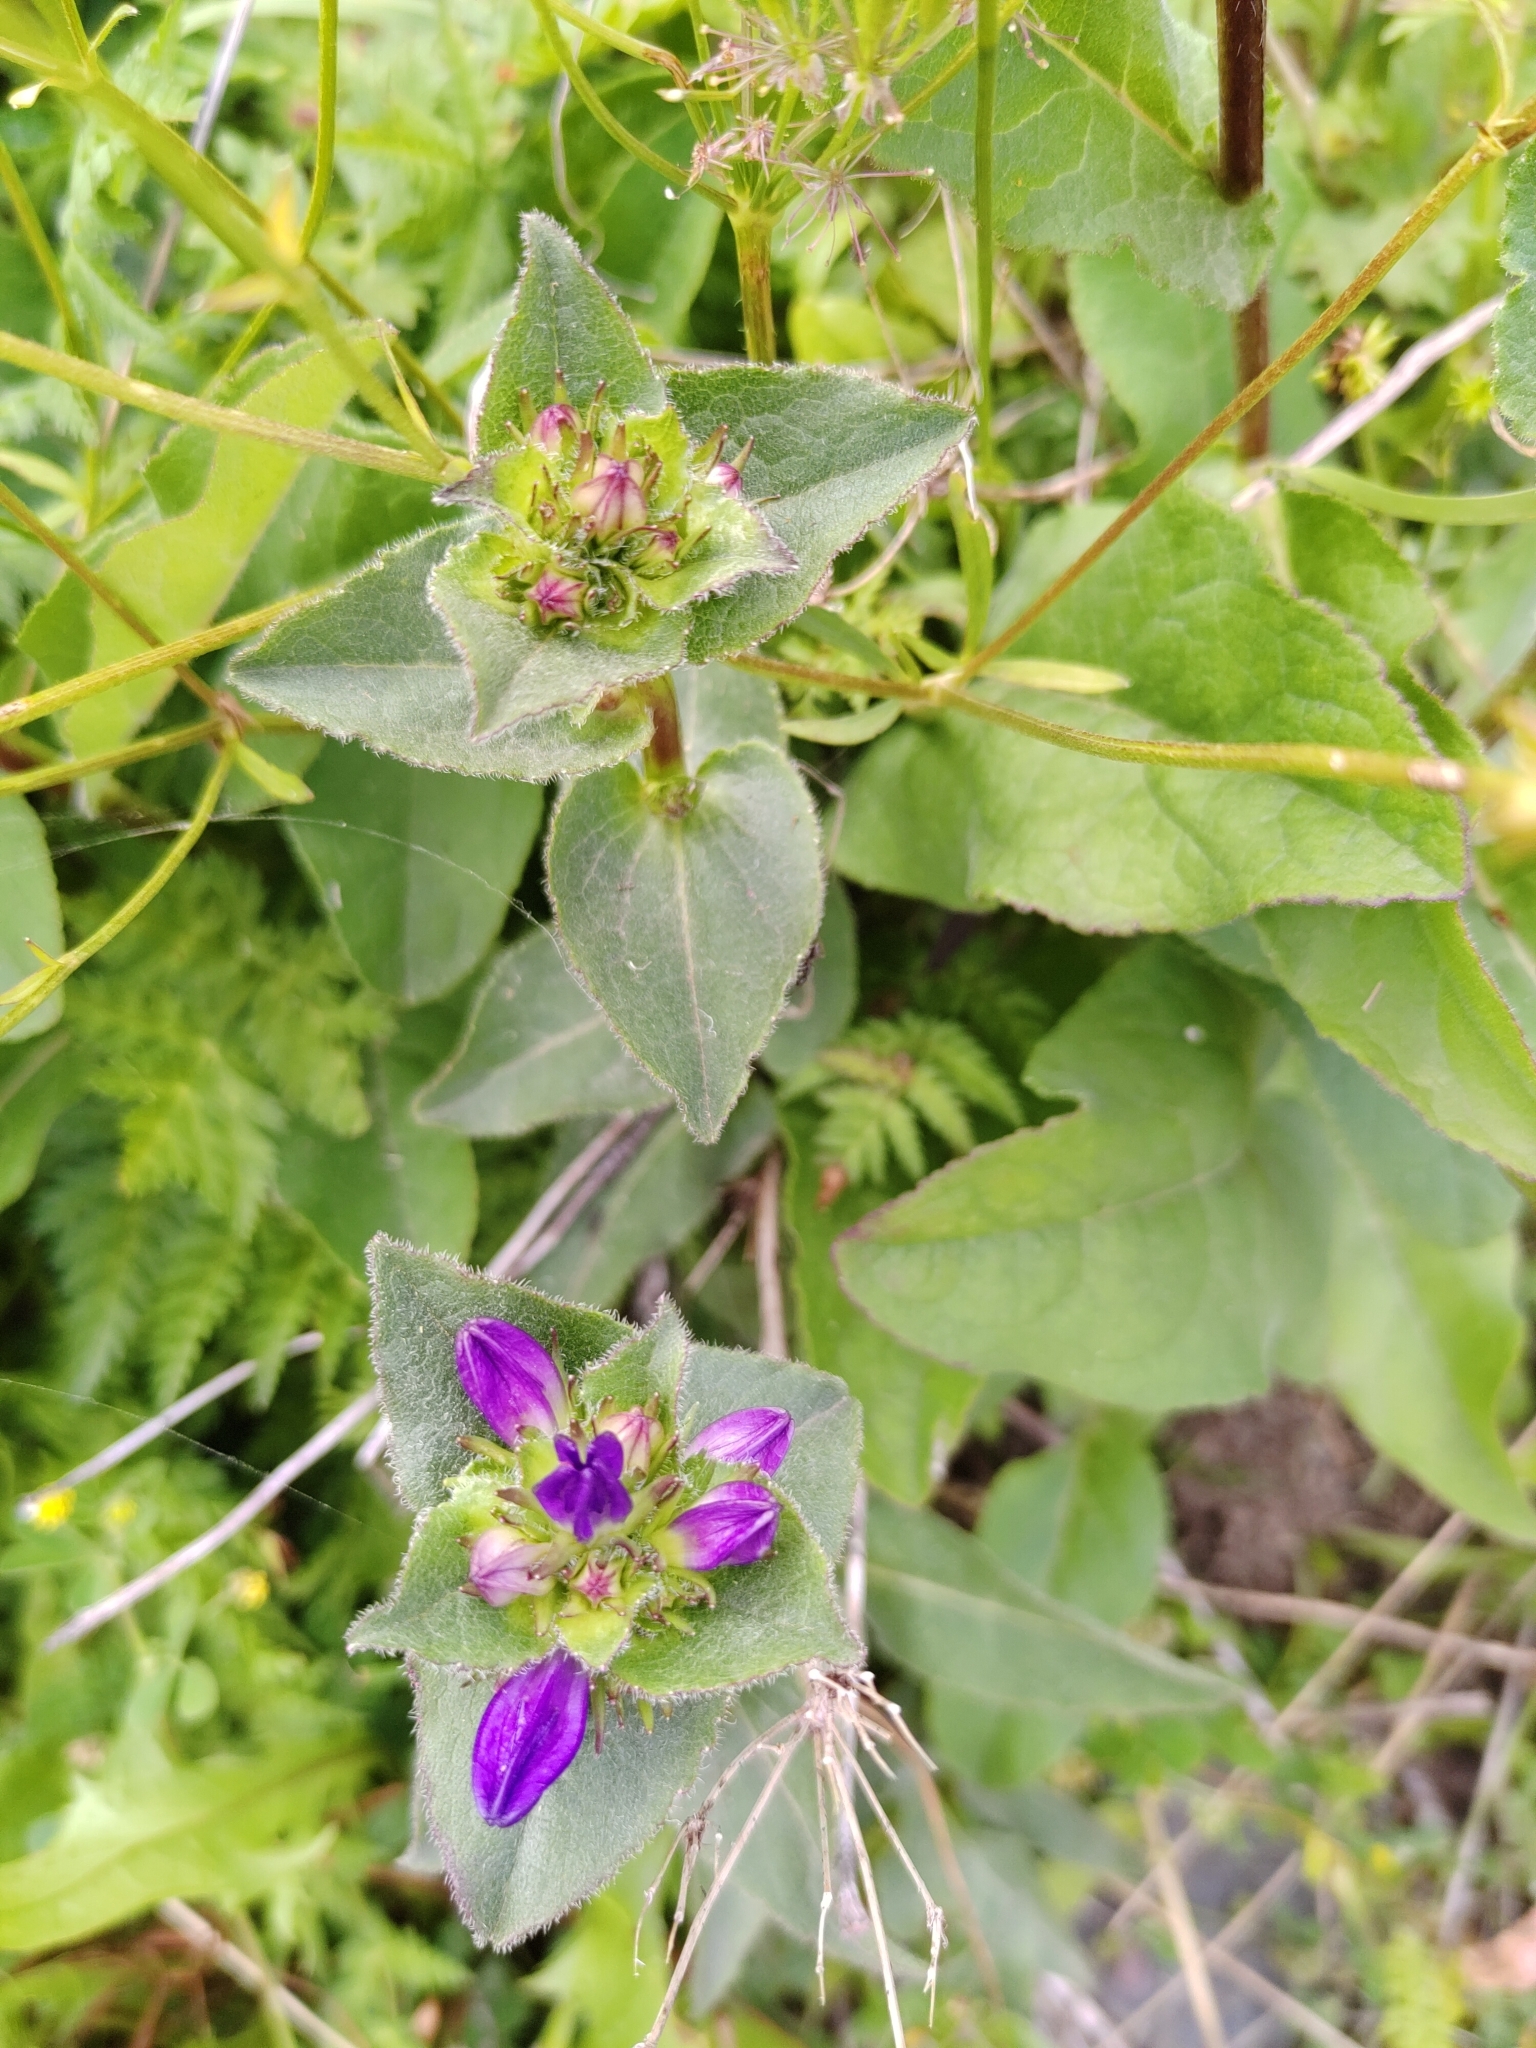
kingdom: Plantae
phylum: Tracheophyta
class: Magnoliopsida
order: Asterales
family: Campanulaceae
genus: Campanula
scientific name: Campanula glomerata
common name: Clustered bellflower
